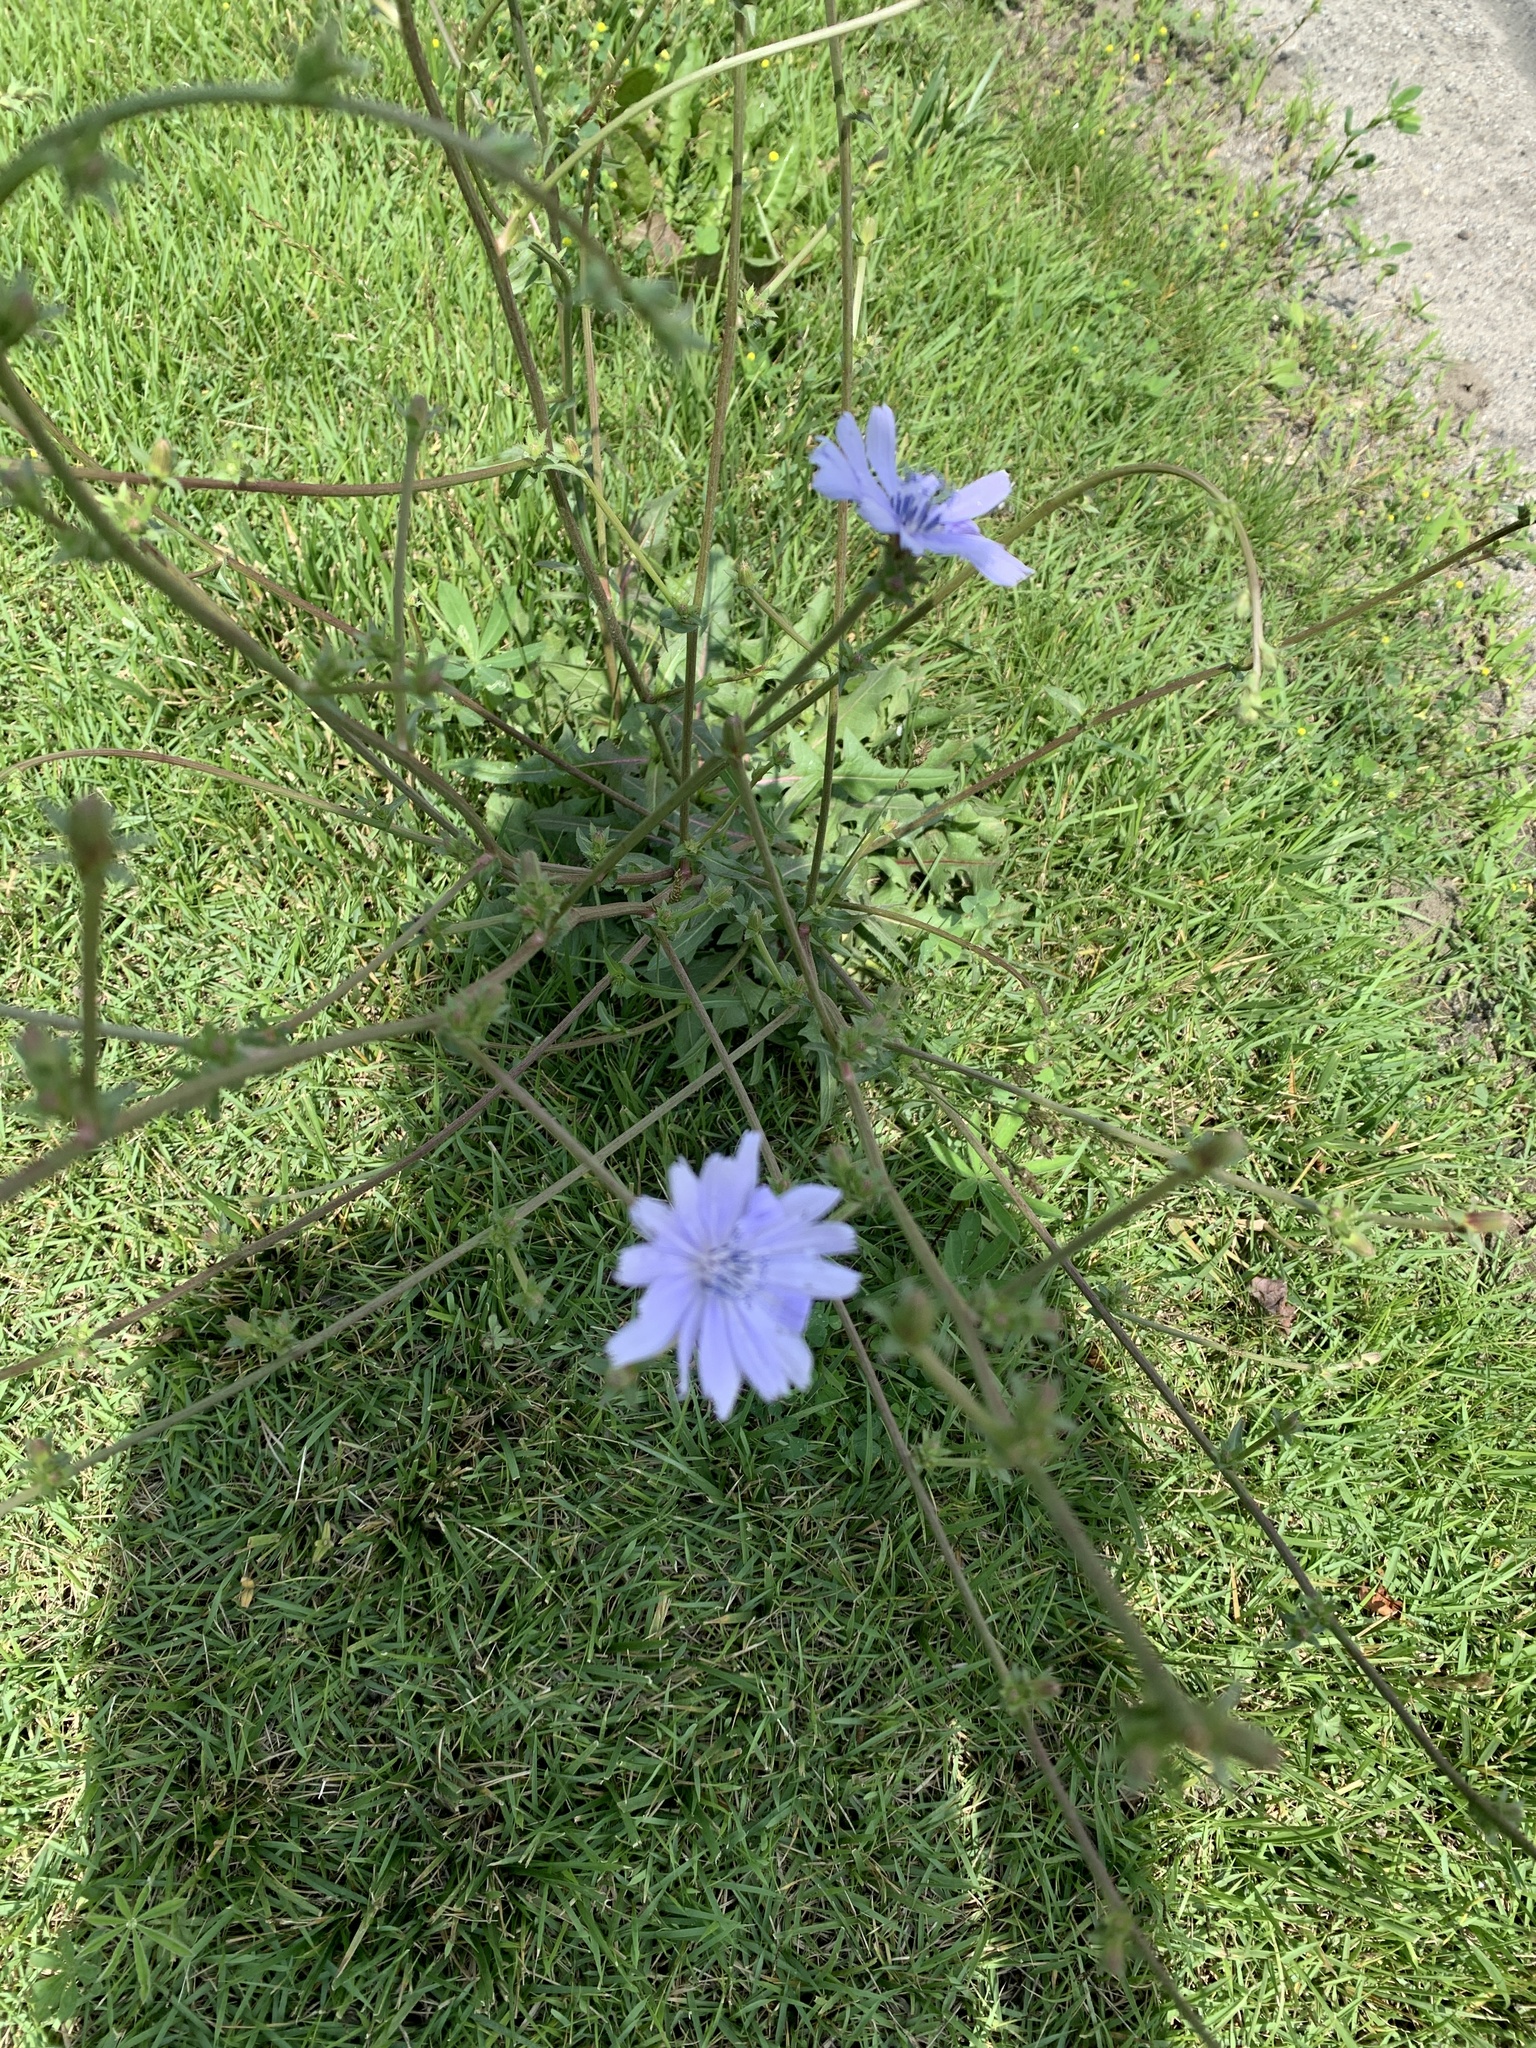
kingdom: Plantae
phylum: Tracheophyta
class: Magnoliopsida
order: Asterales
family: Asteraceae
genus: Cichorium
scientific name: Cichorium intybus
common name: Chicory
